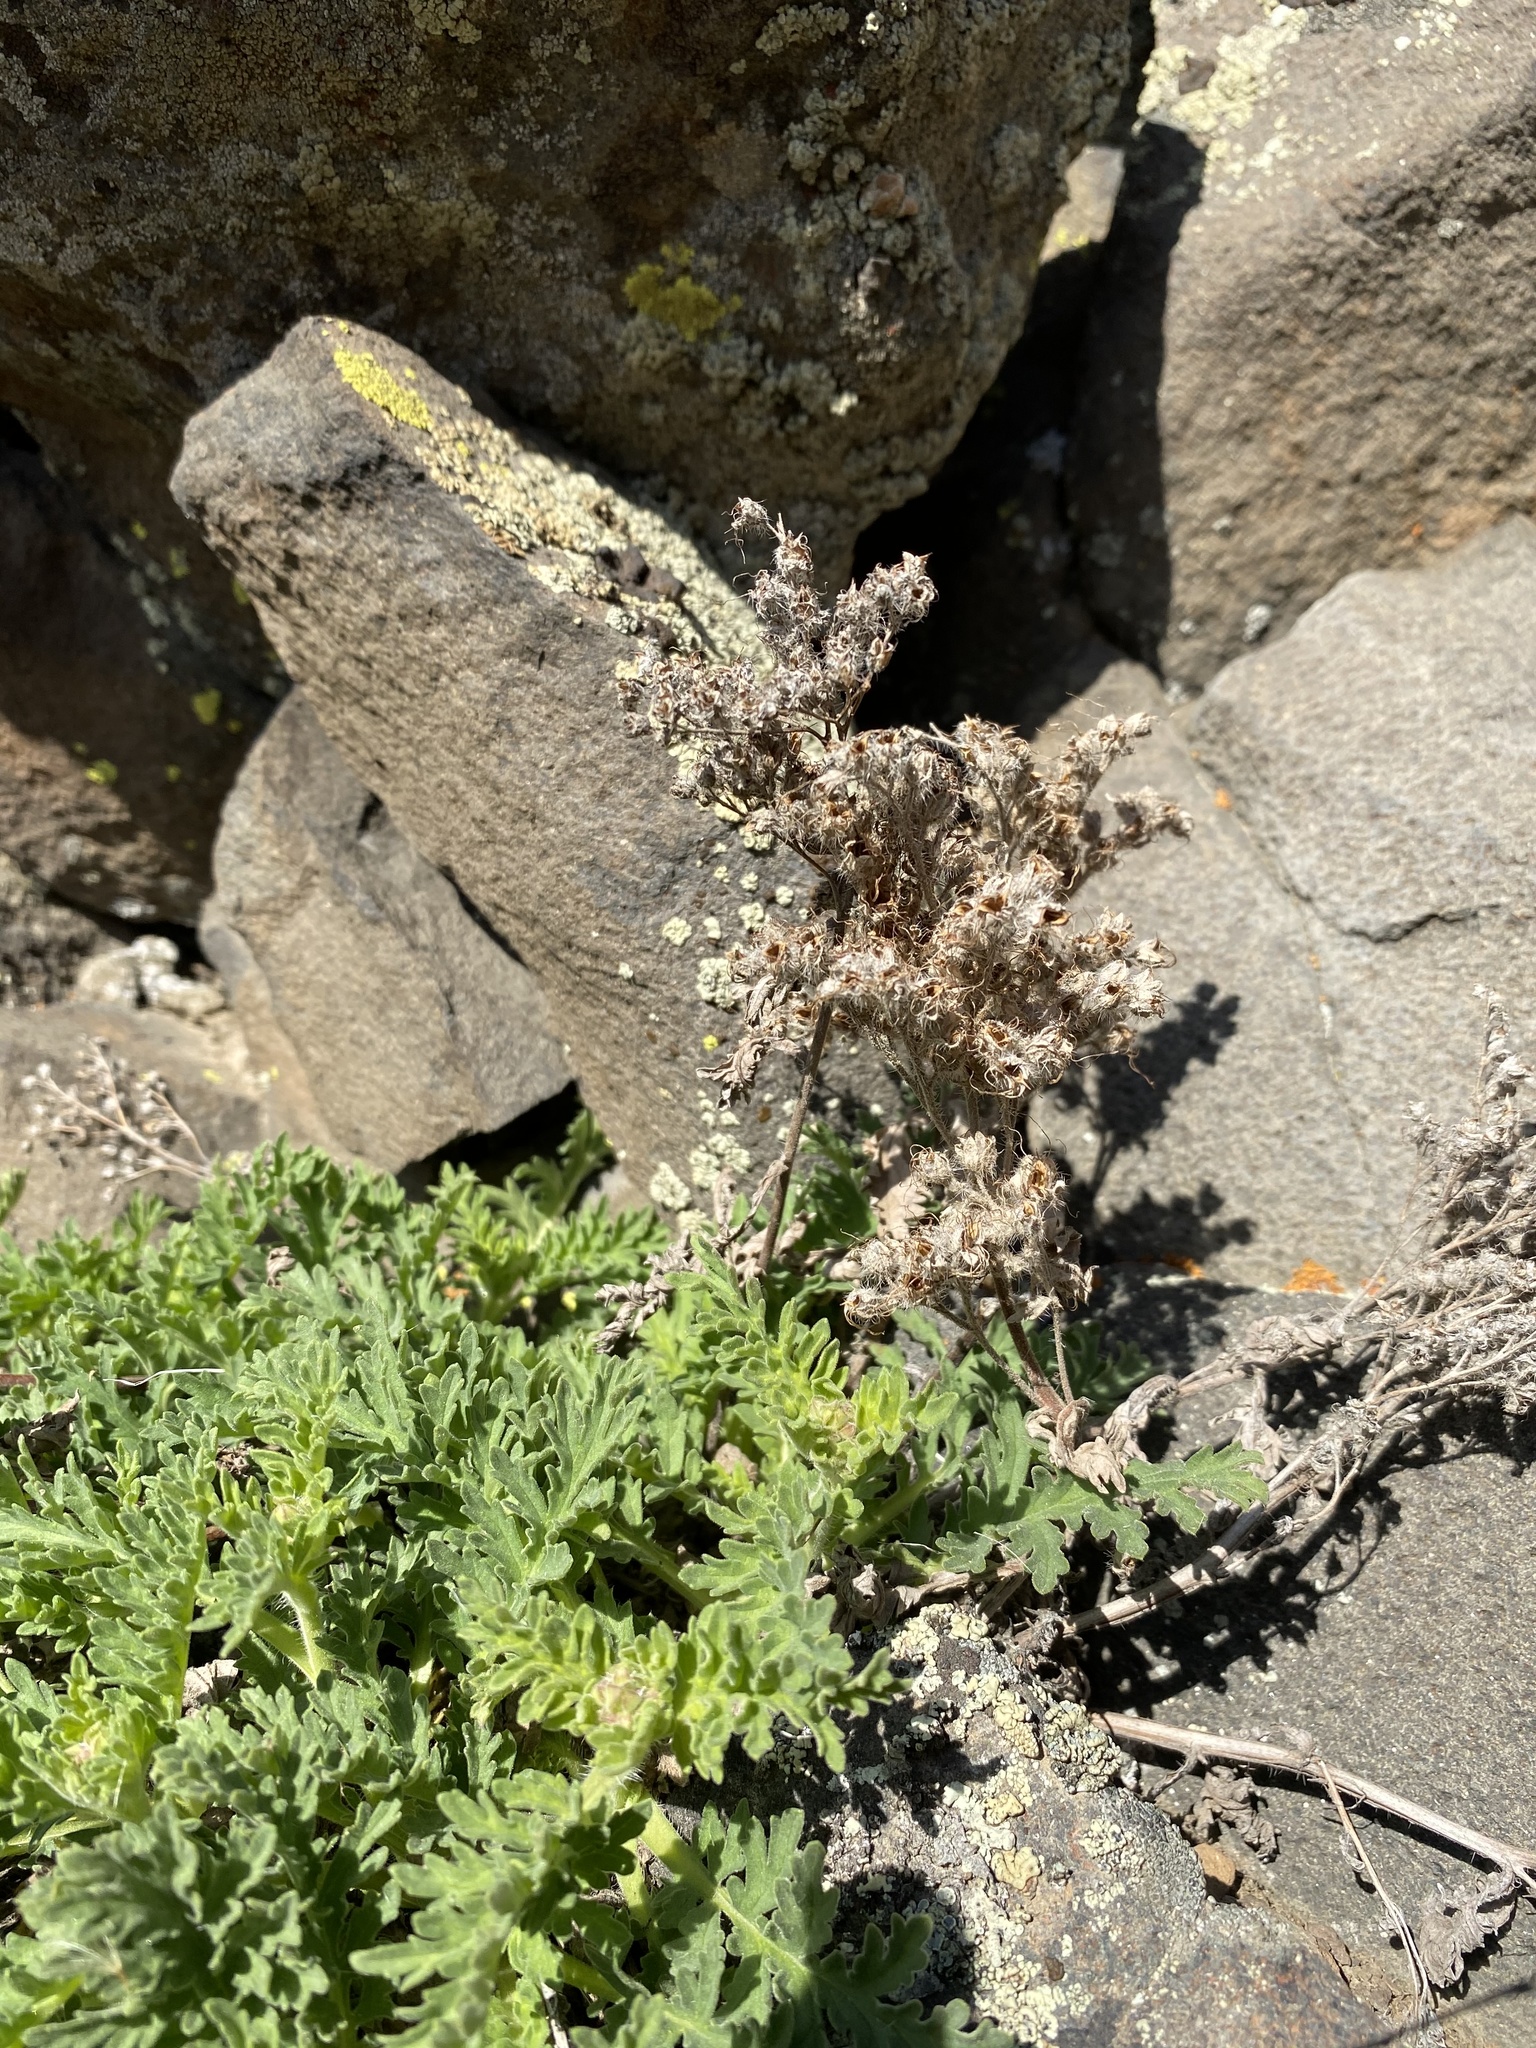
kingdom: Plantae
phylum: Tracheophyta
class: Magnoliopsida
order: Boraginales
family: Hydrophyllaceae
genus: Phacelia
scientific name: Phacelia lenta
